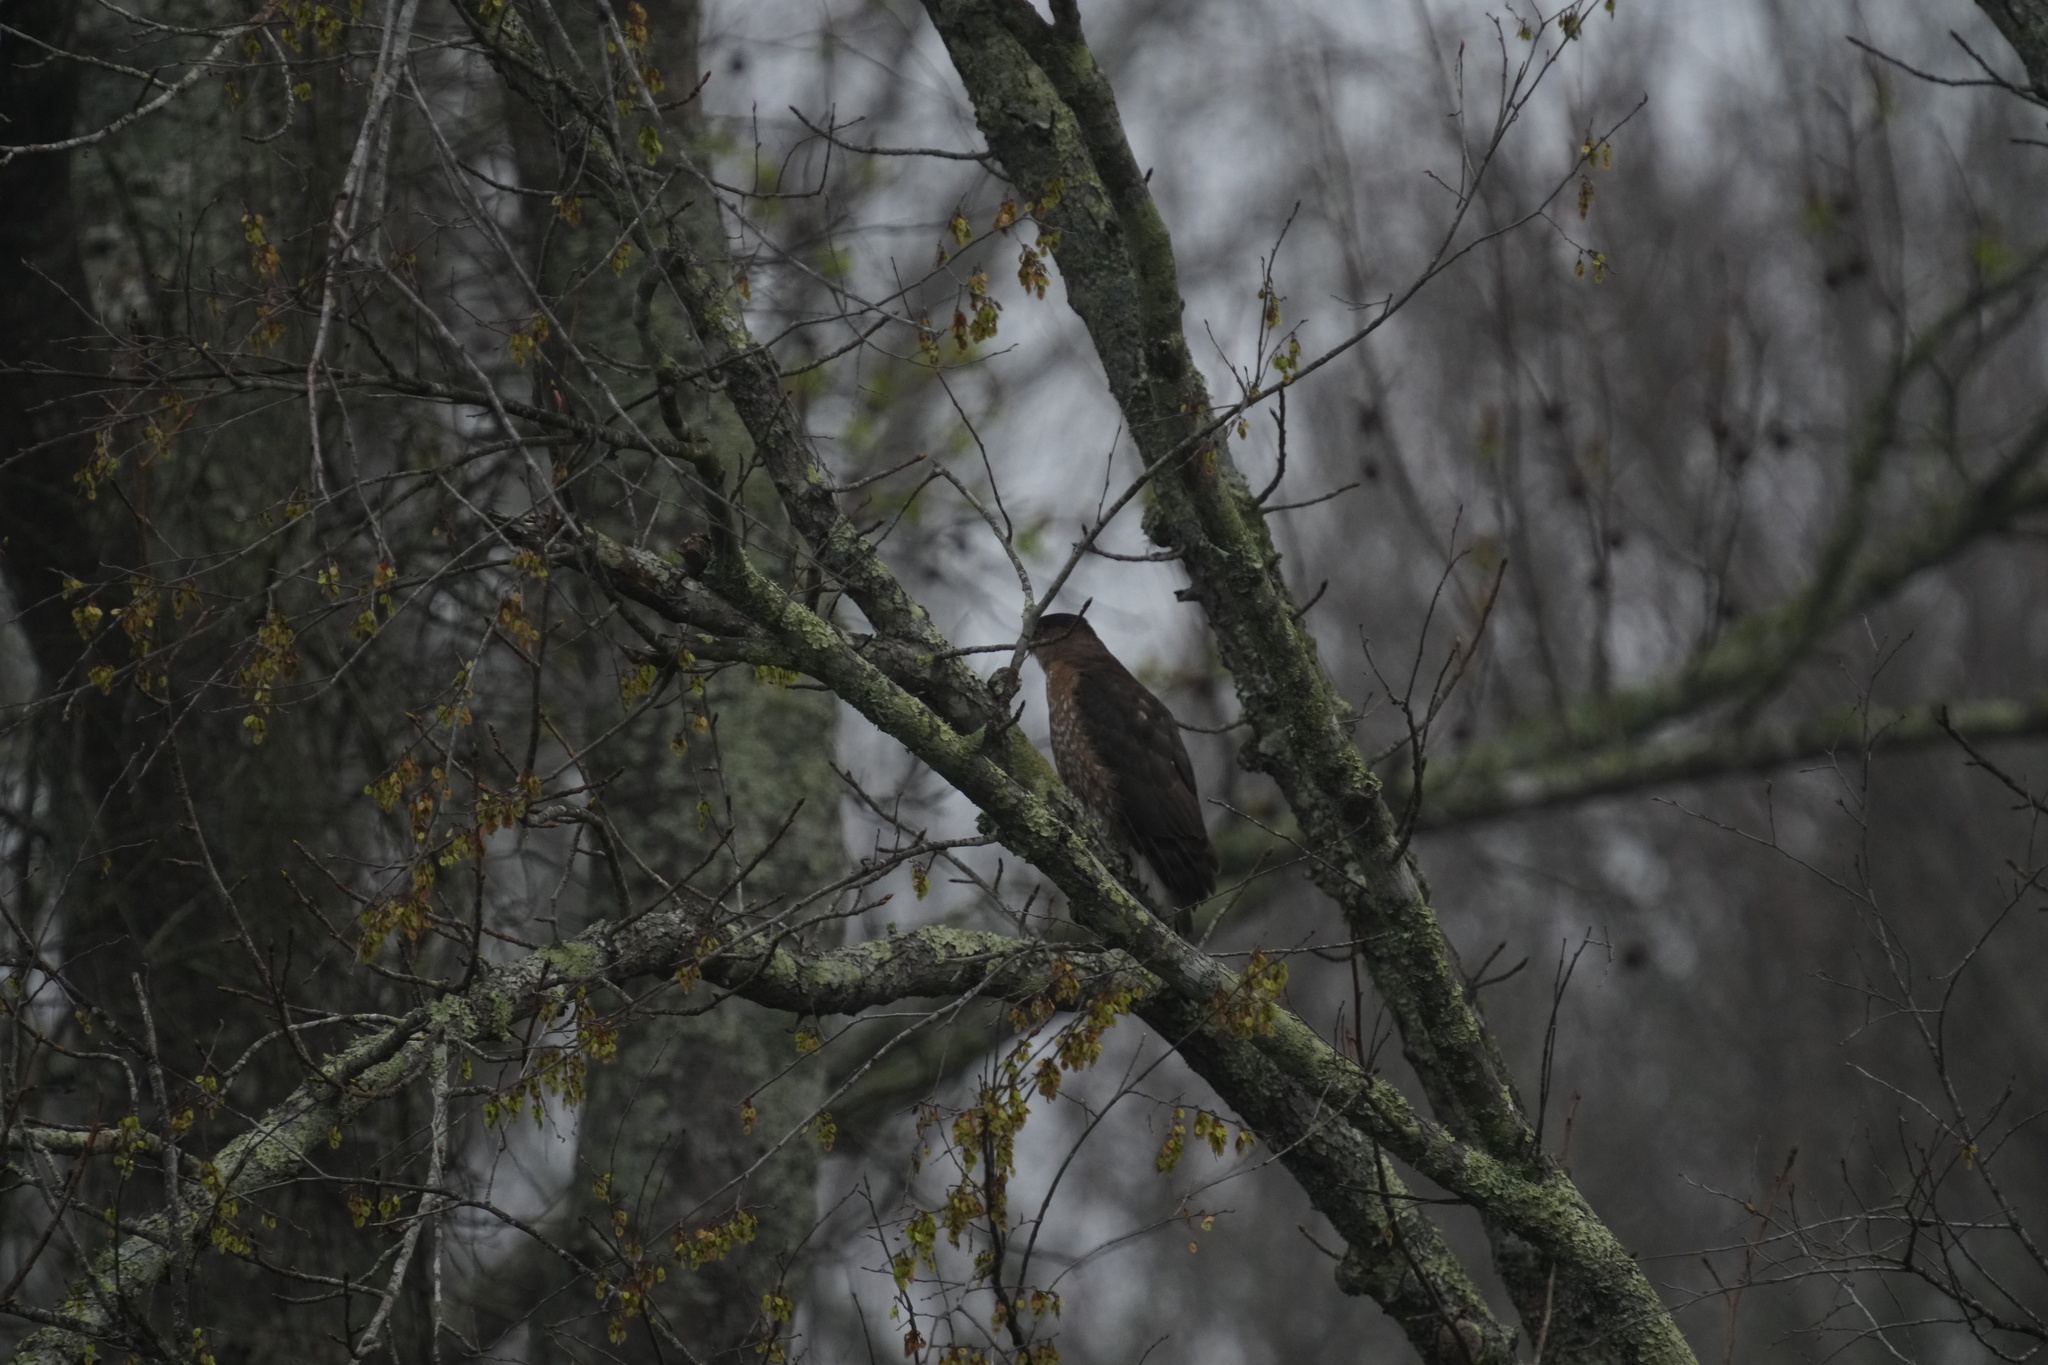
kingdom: Animalia
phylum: Chordata
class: Aves
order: Accipitriformes
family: Accipitridae
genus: Accipiter
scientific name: Accipiter cooperii
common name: Cooper's hawk
